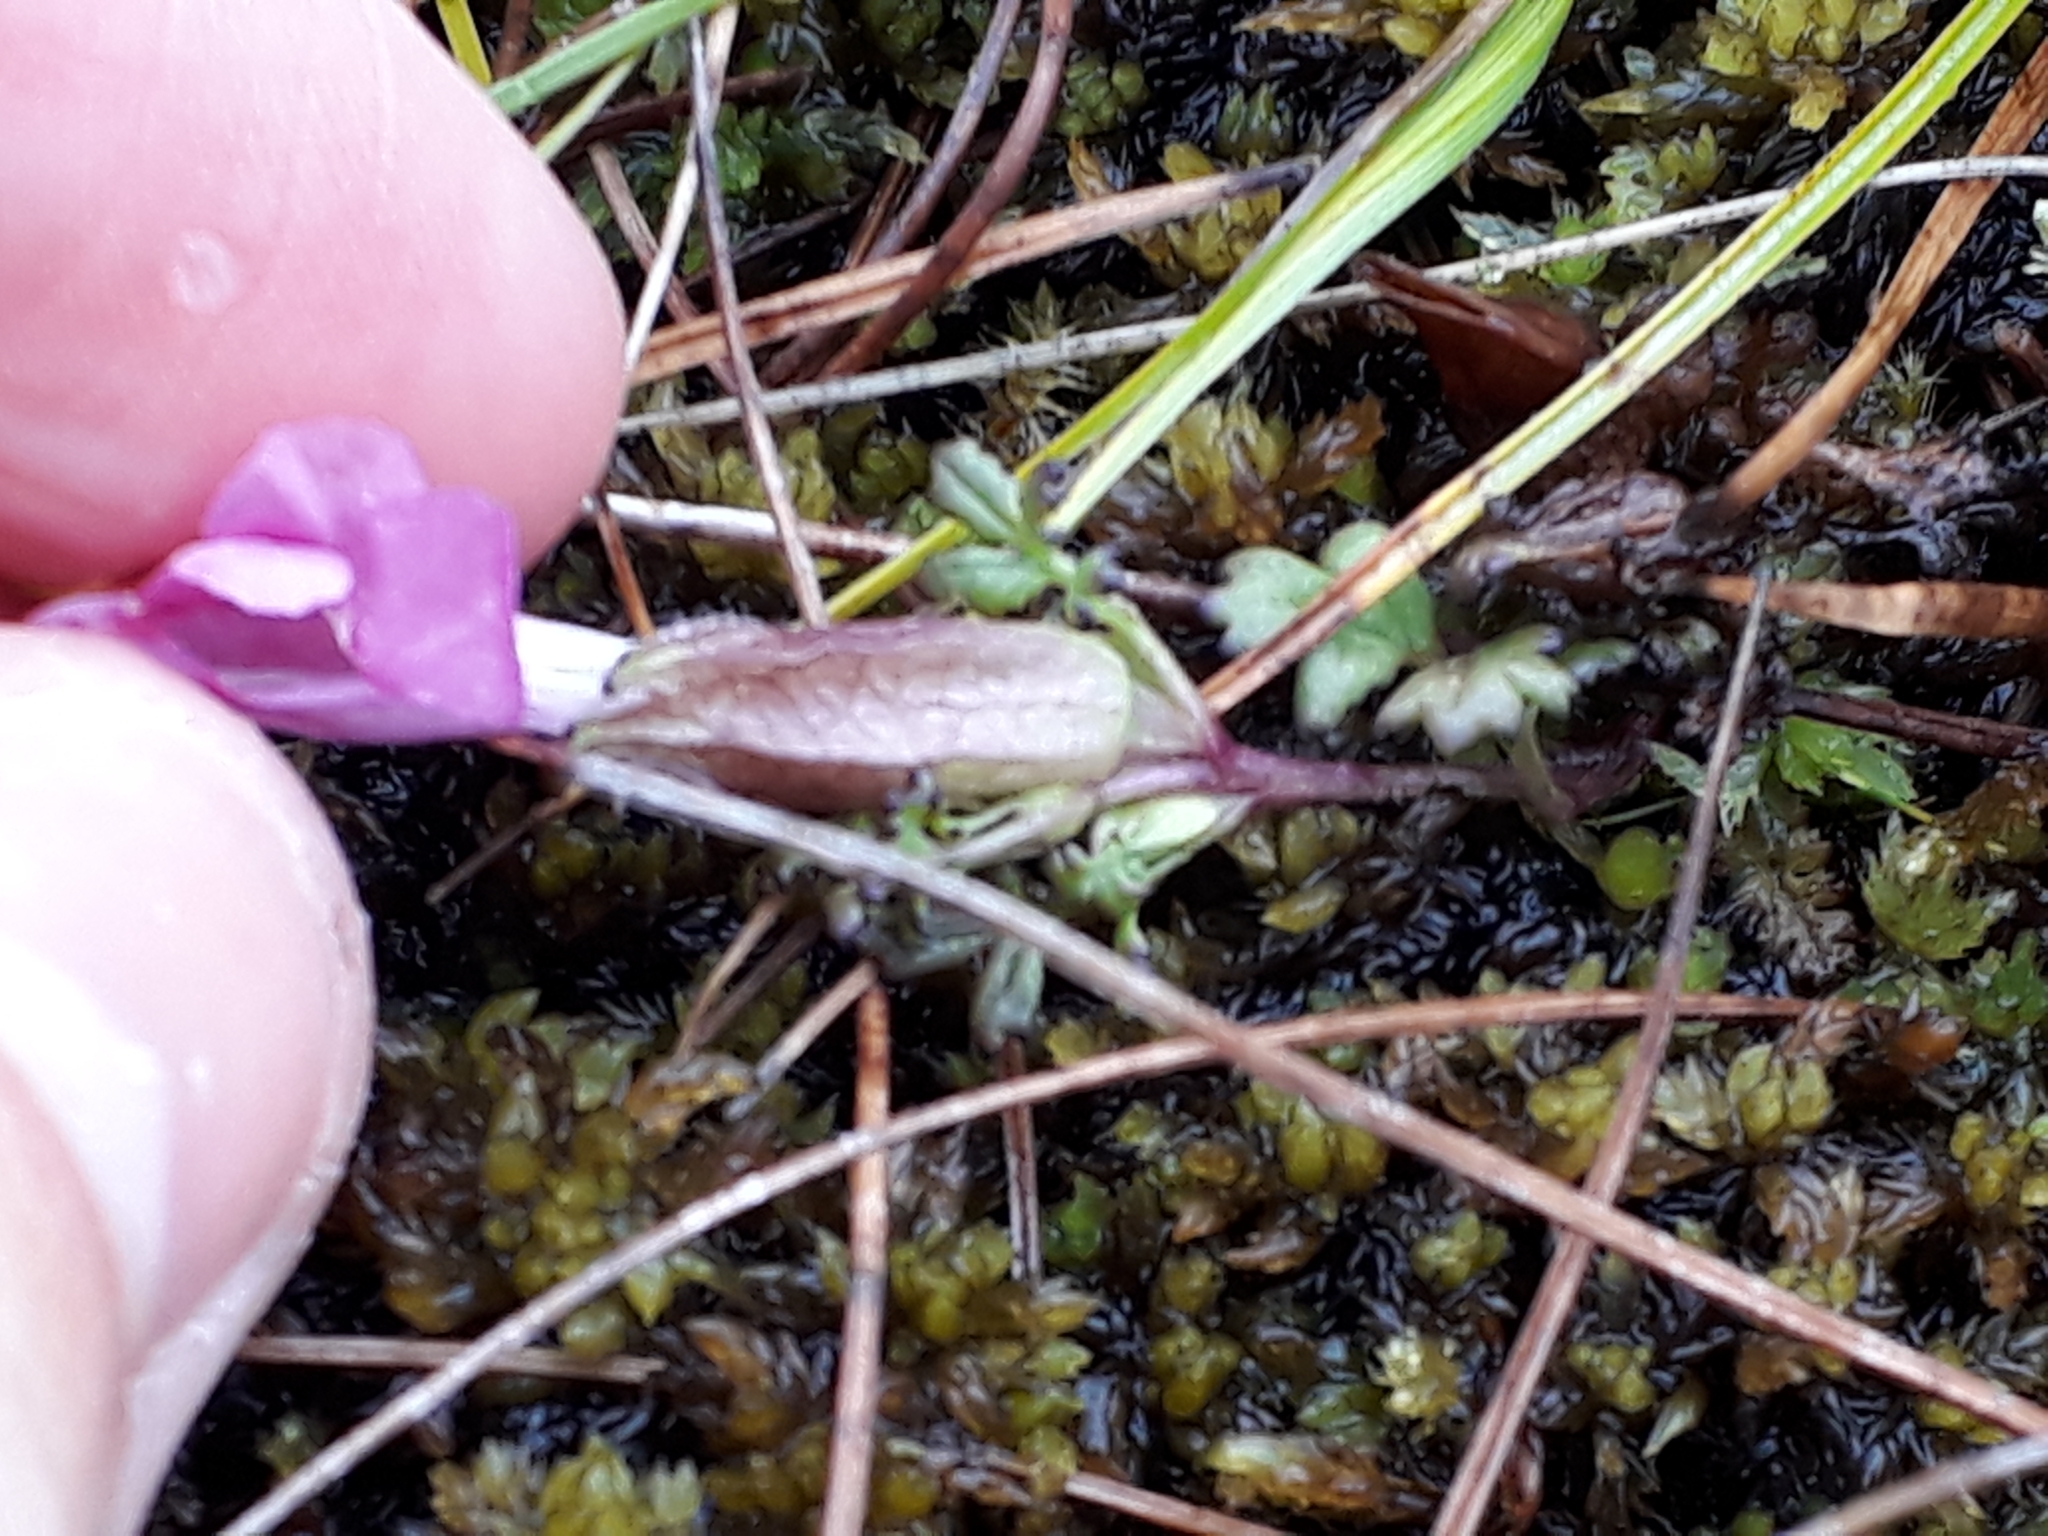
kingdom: Plantae
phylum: Tracheophyta
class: Magnoliopsida
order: Lamiales
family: Orobanchaceae
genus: Pedicularis
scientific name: Pedicularis sylvatica
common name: Lousewort
